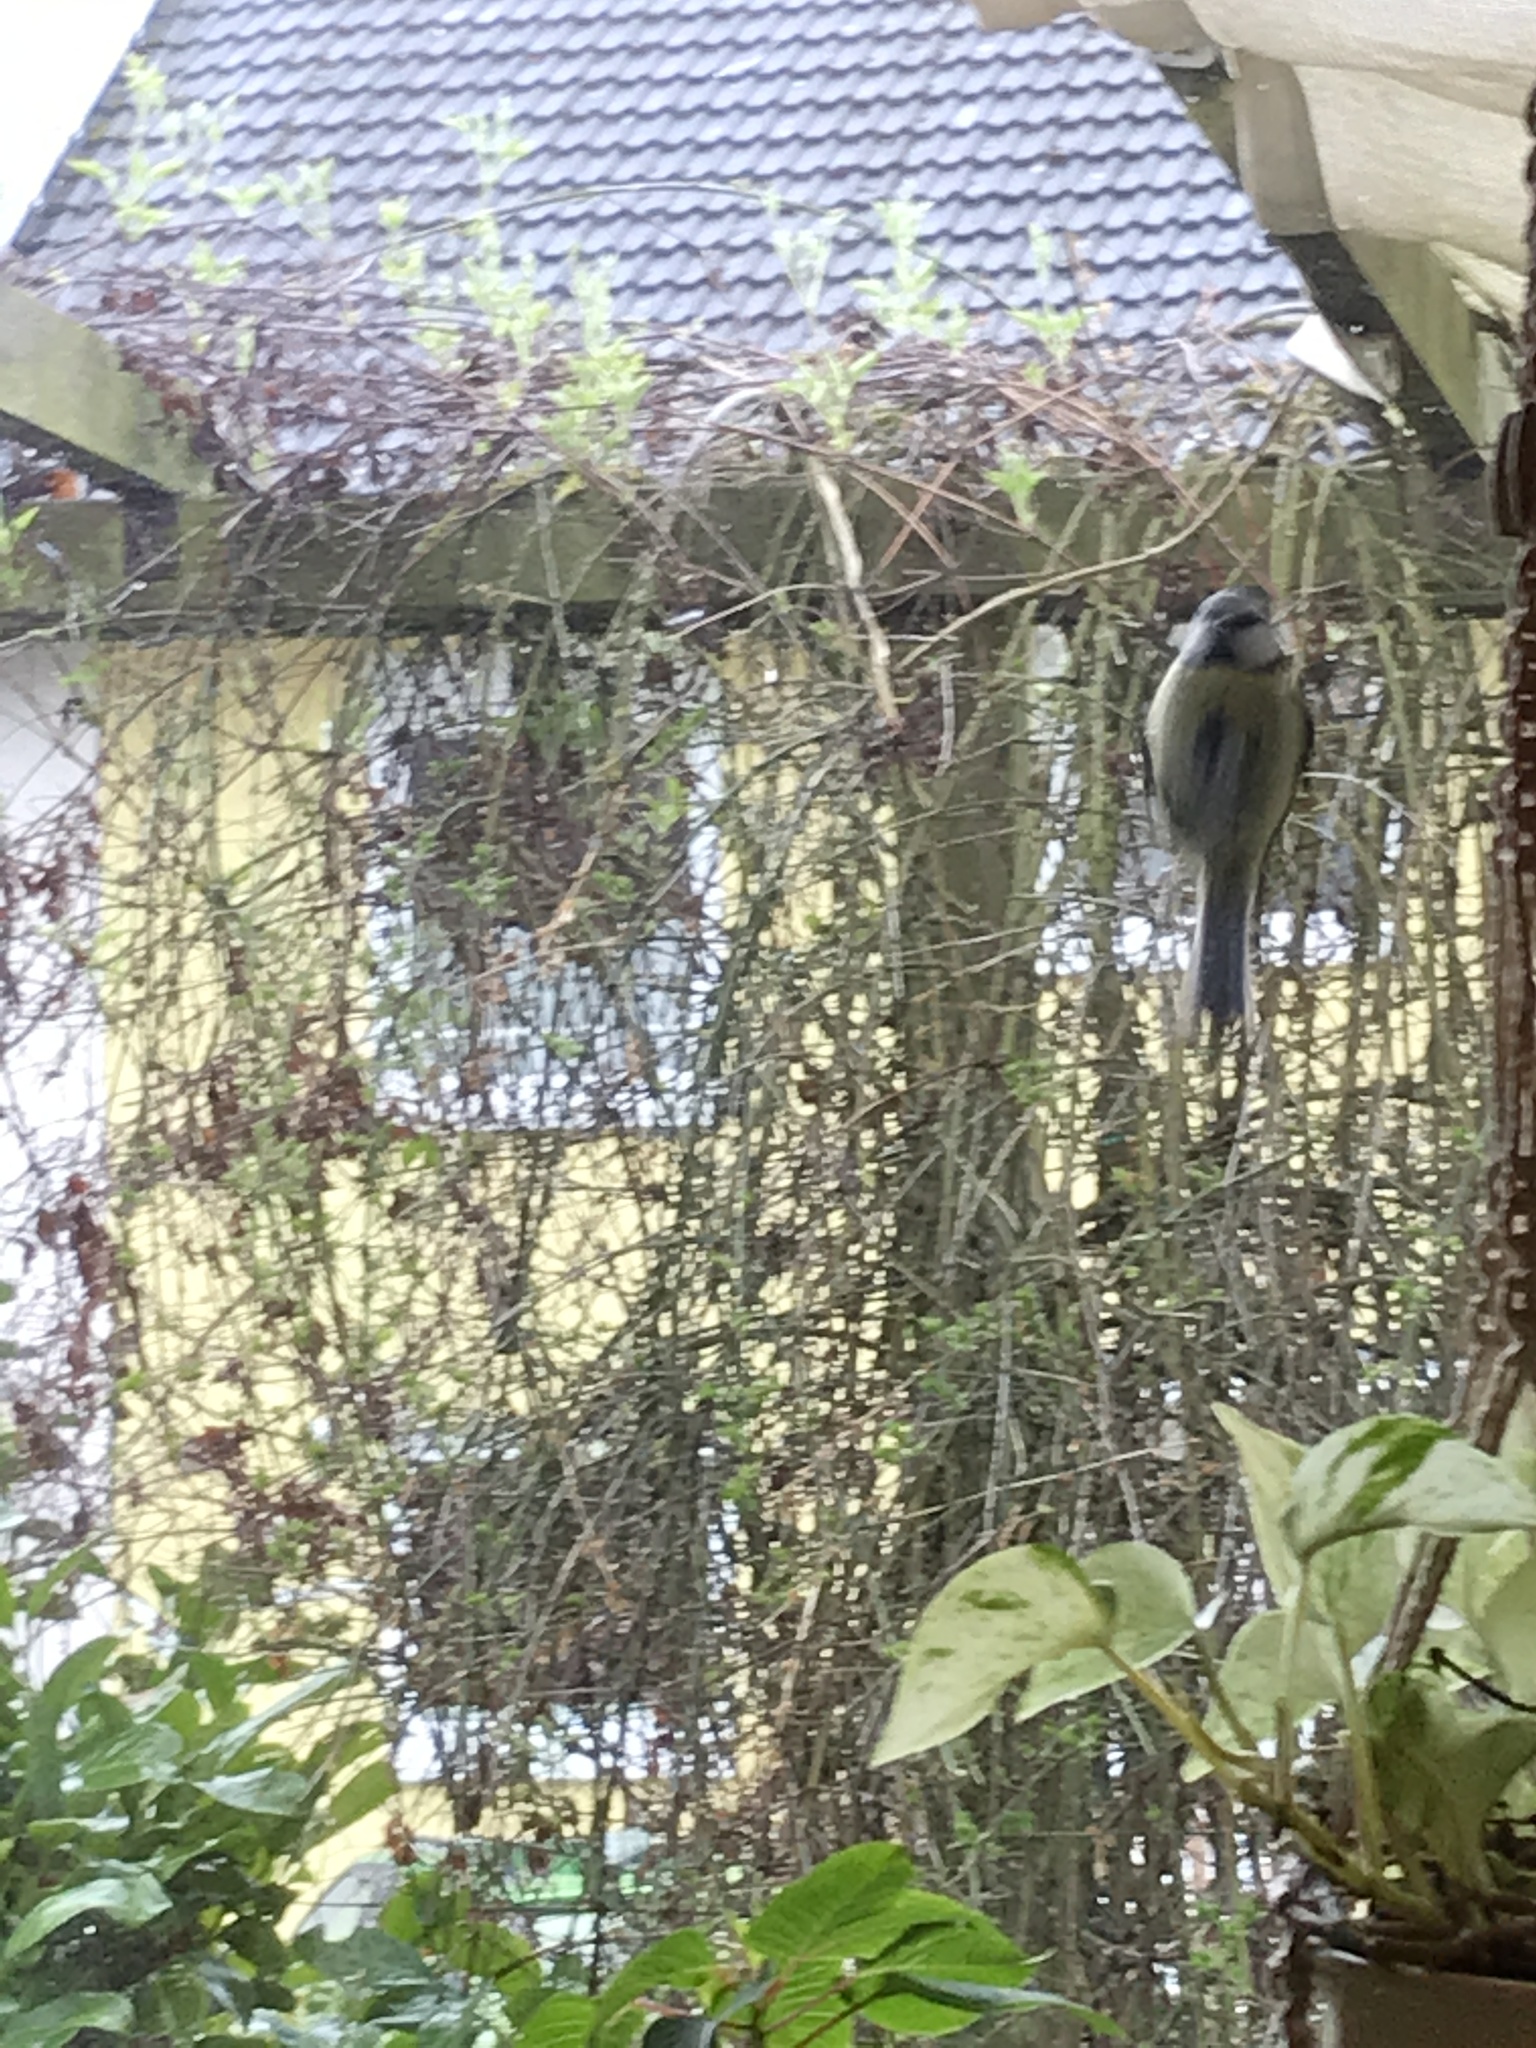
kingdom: Animalia
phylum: Chordata
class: Aves
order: Passeriformes
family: Paridae
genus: Cyanistes
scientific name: Cyanistes caeruleus
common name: Eurasian blue tit
